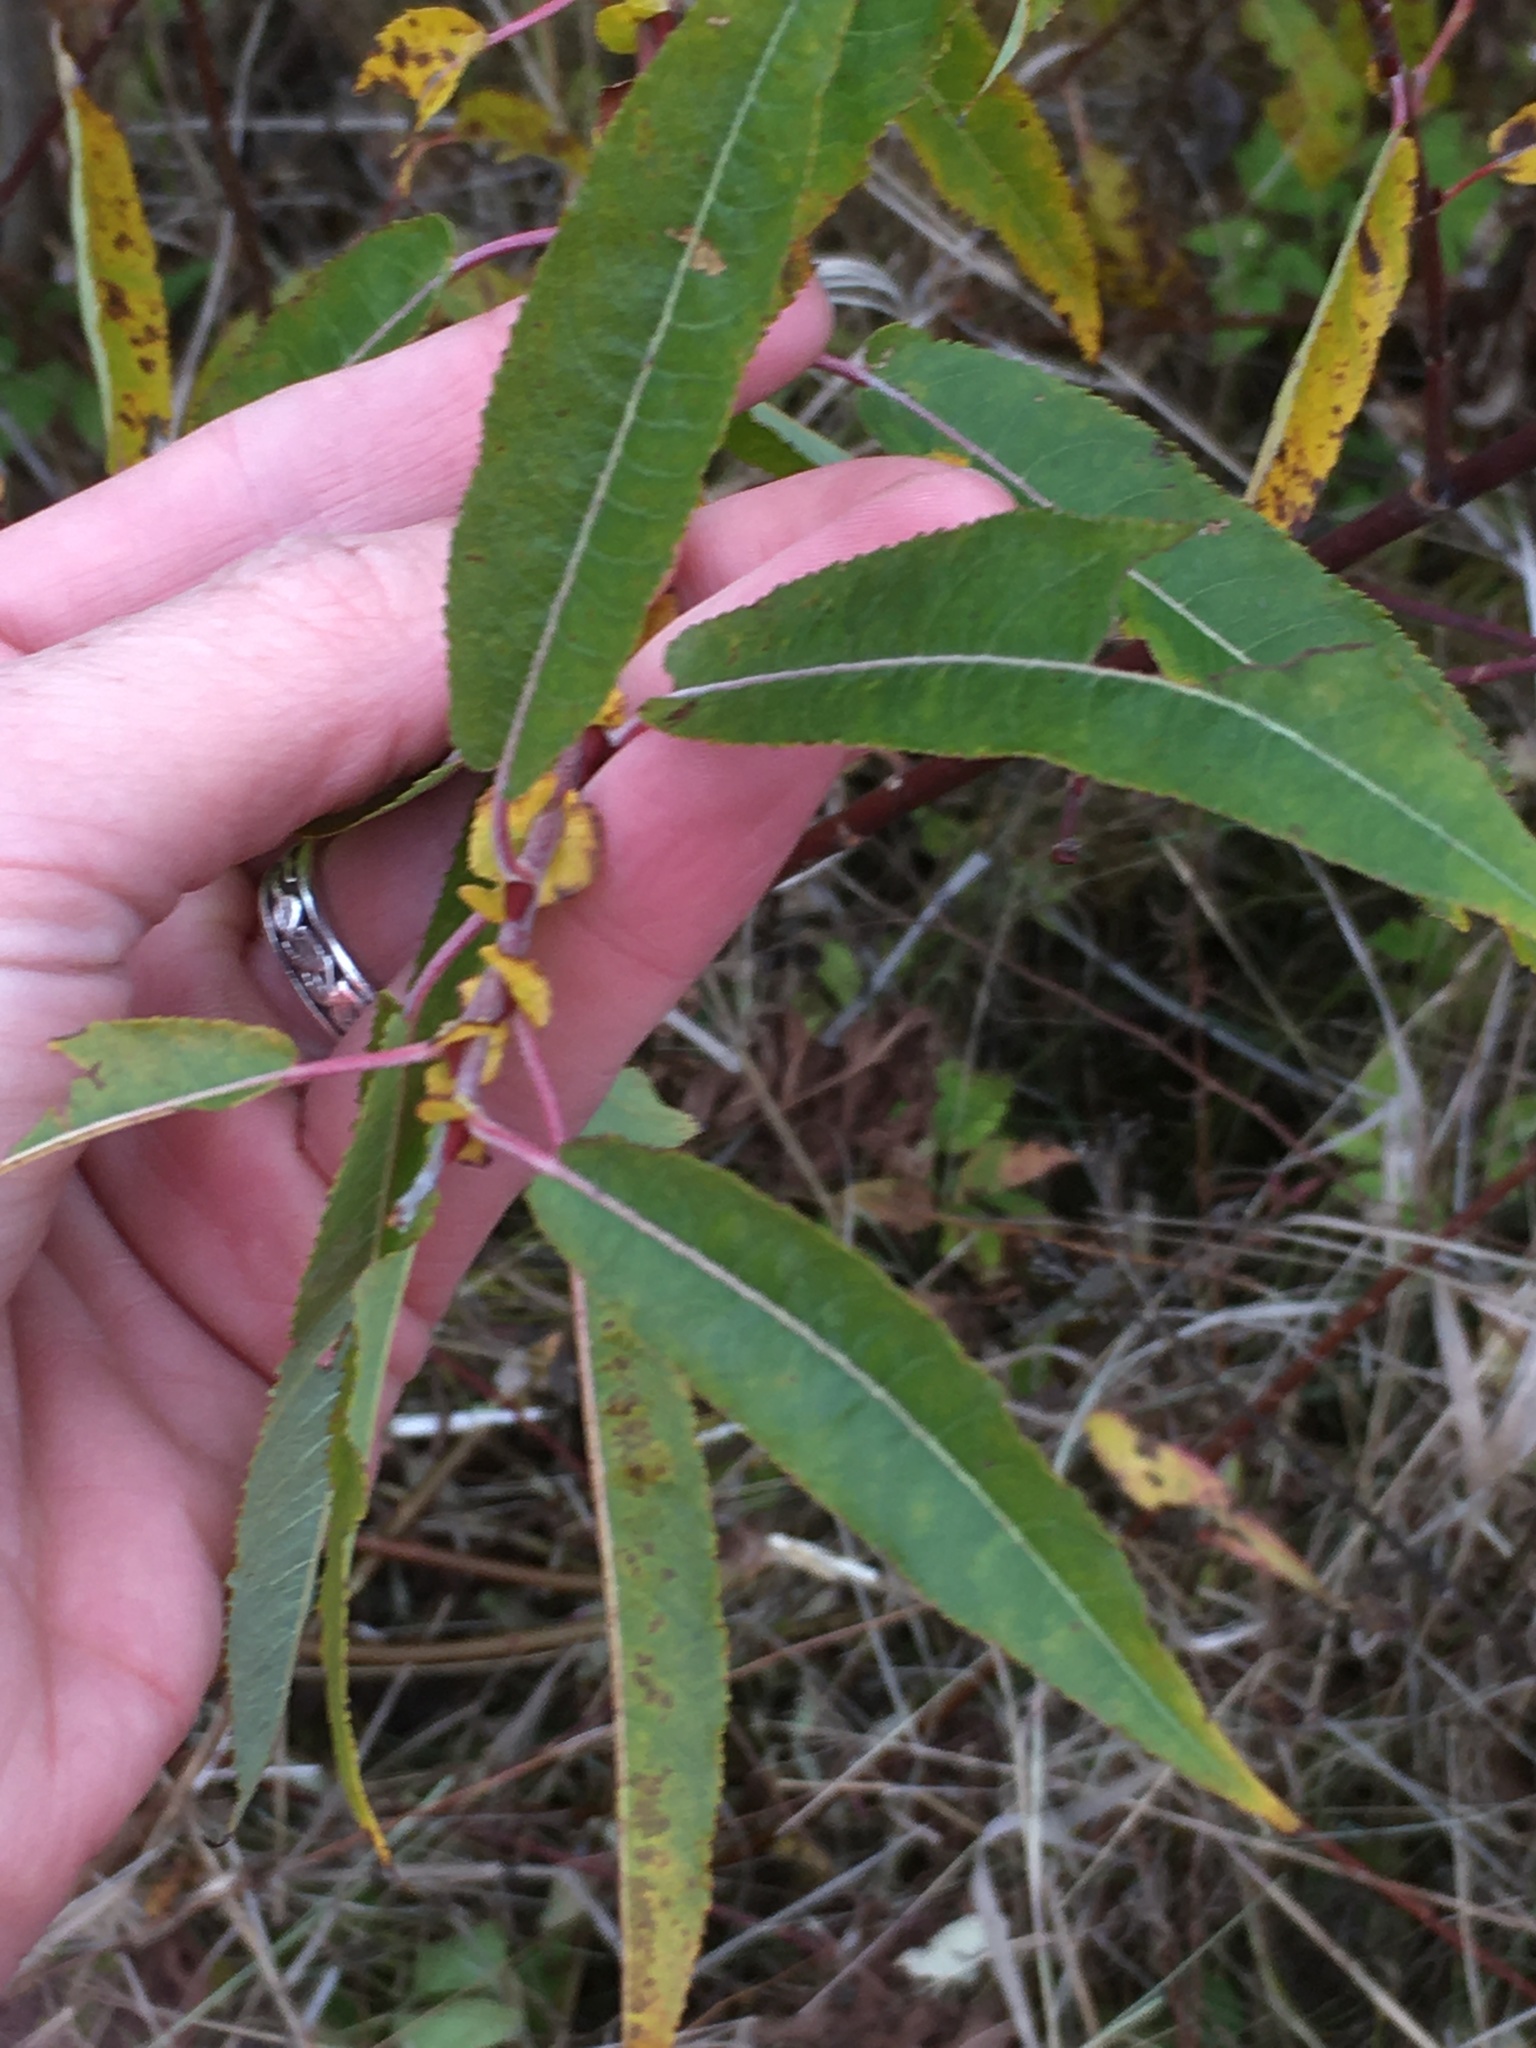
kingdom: Plantae
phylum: Tracheophyta
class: Magnoliopsida
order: Malpighiales
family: Salicaceae
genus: Salix
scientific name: Salix eriocephala
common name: Heart-leaved willow
